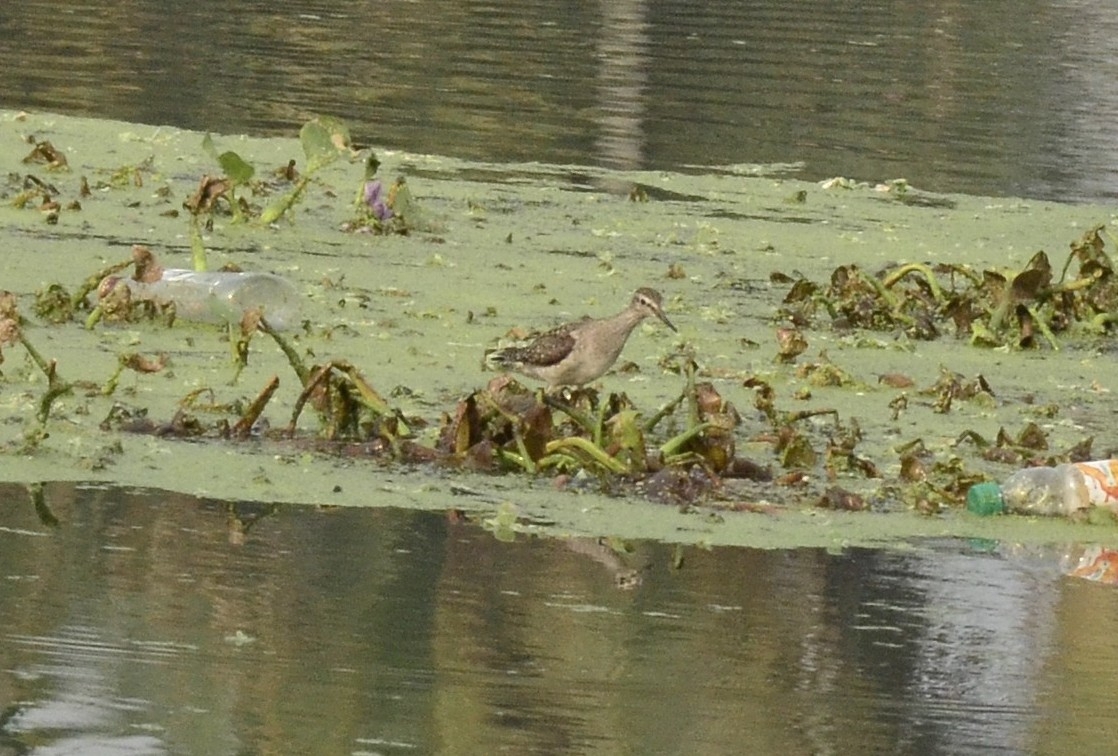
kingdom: Animalia
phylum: Chordata
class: Aves
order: Charadriiformes
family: Scolopacidae
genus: Tringa
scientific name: Tringa glareola
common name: Wood sandpiper
